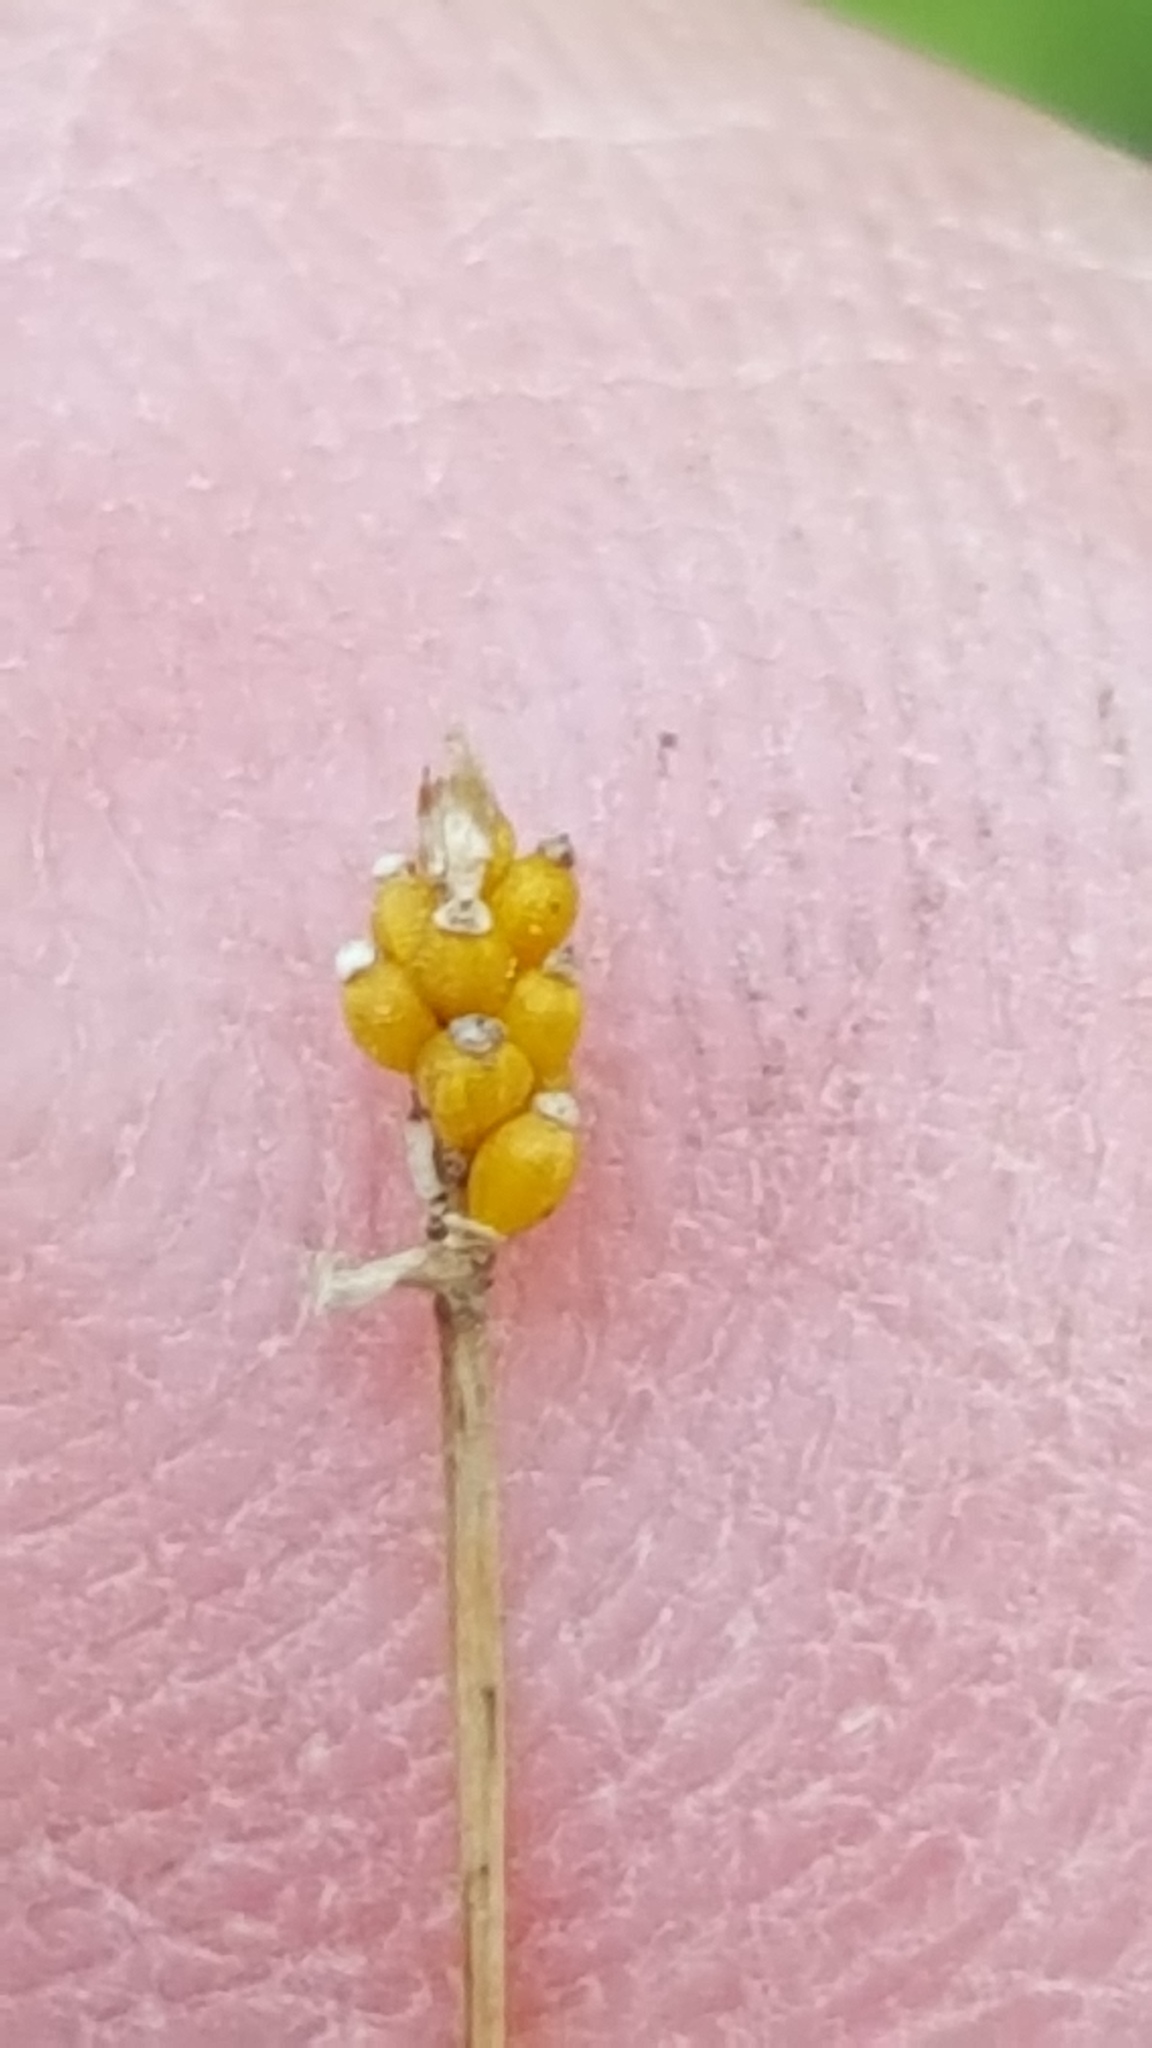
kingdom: Plantae
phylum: Tracheophyta
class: Liliopsida
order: Poales
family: Cyperaceae
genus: Eleocharis
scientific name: Eleocharis nitida
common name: Neat spikerush
